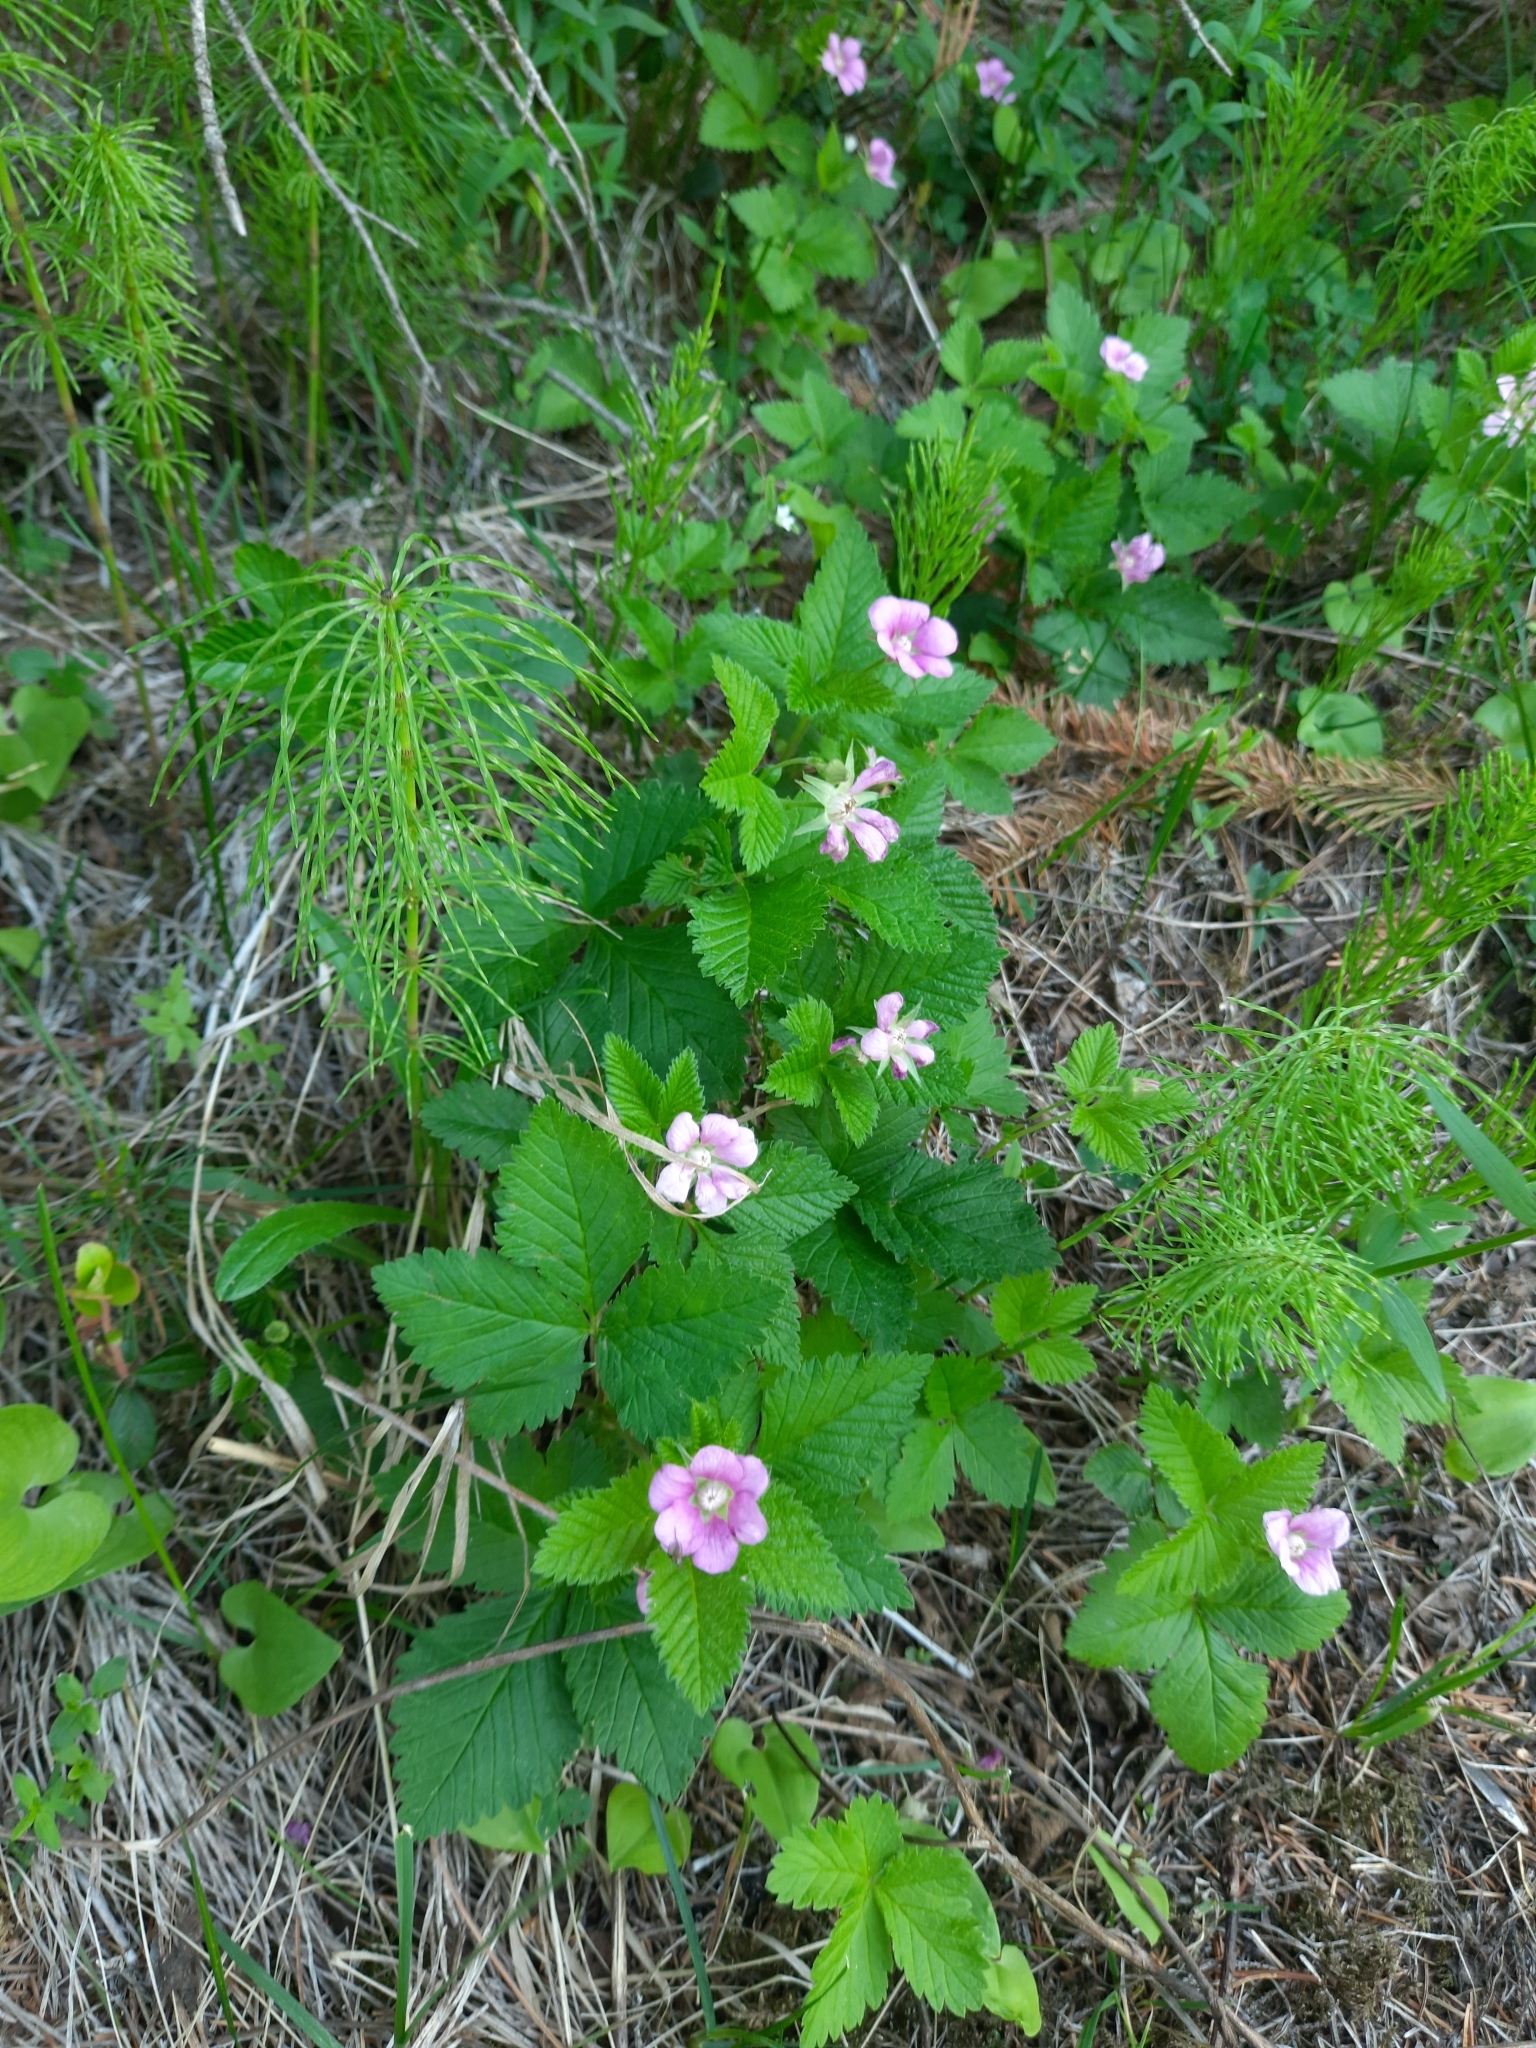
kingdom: Plantae
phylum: Tracheophyta
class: Magnoliopsida
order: Rosales
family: Rosaceae
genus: Rubus
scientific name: Rubus arcticus
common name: Arctic bramble
